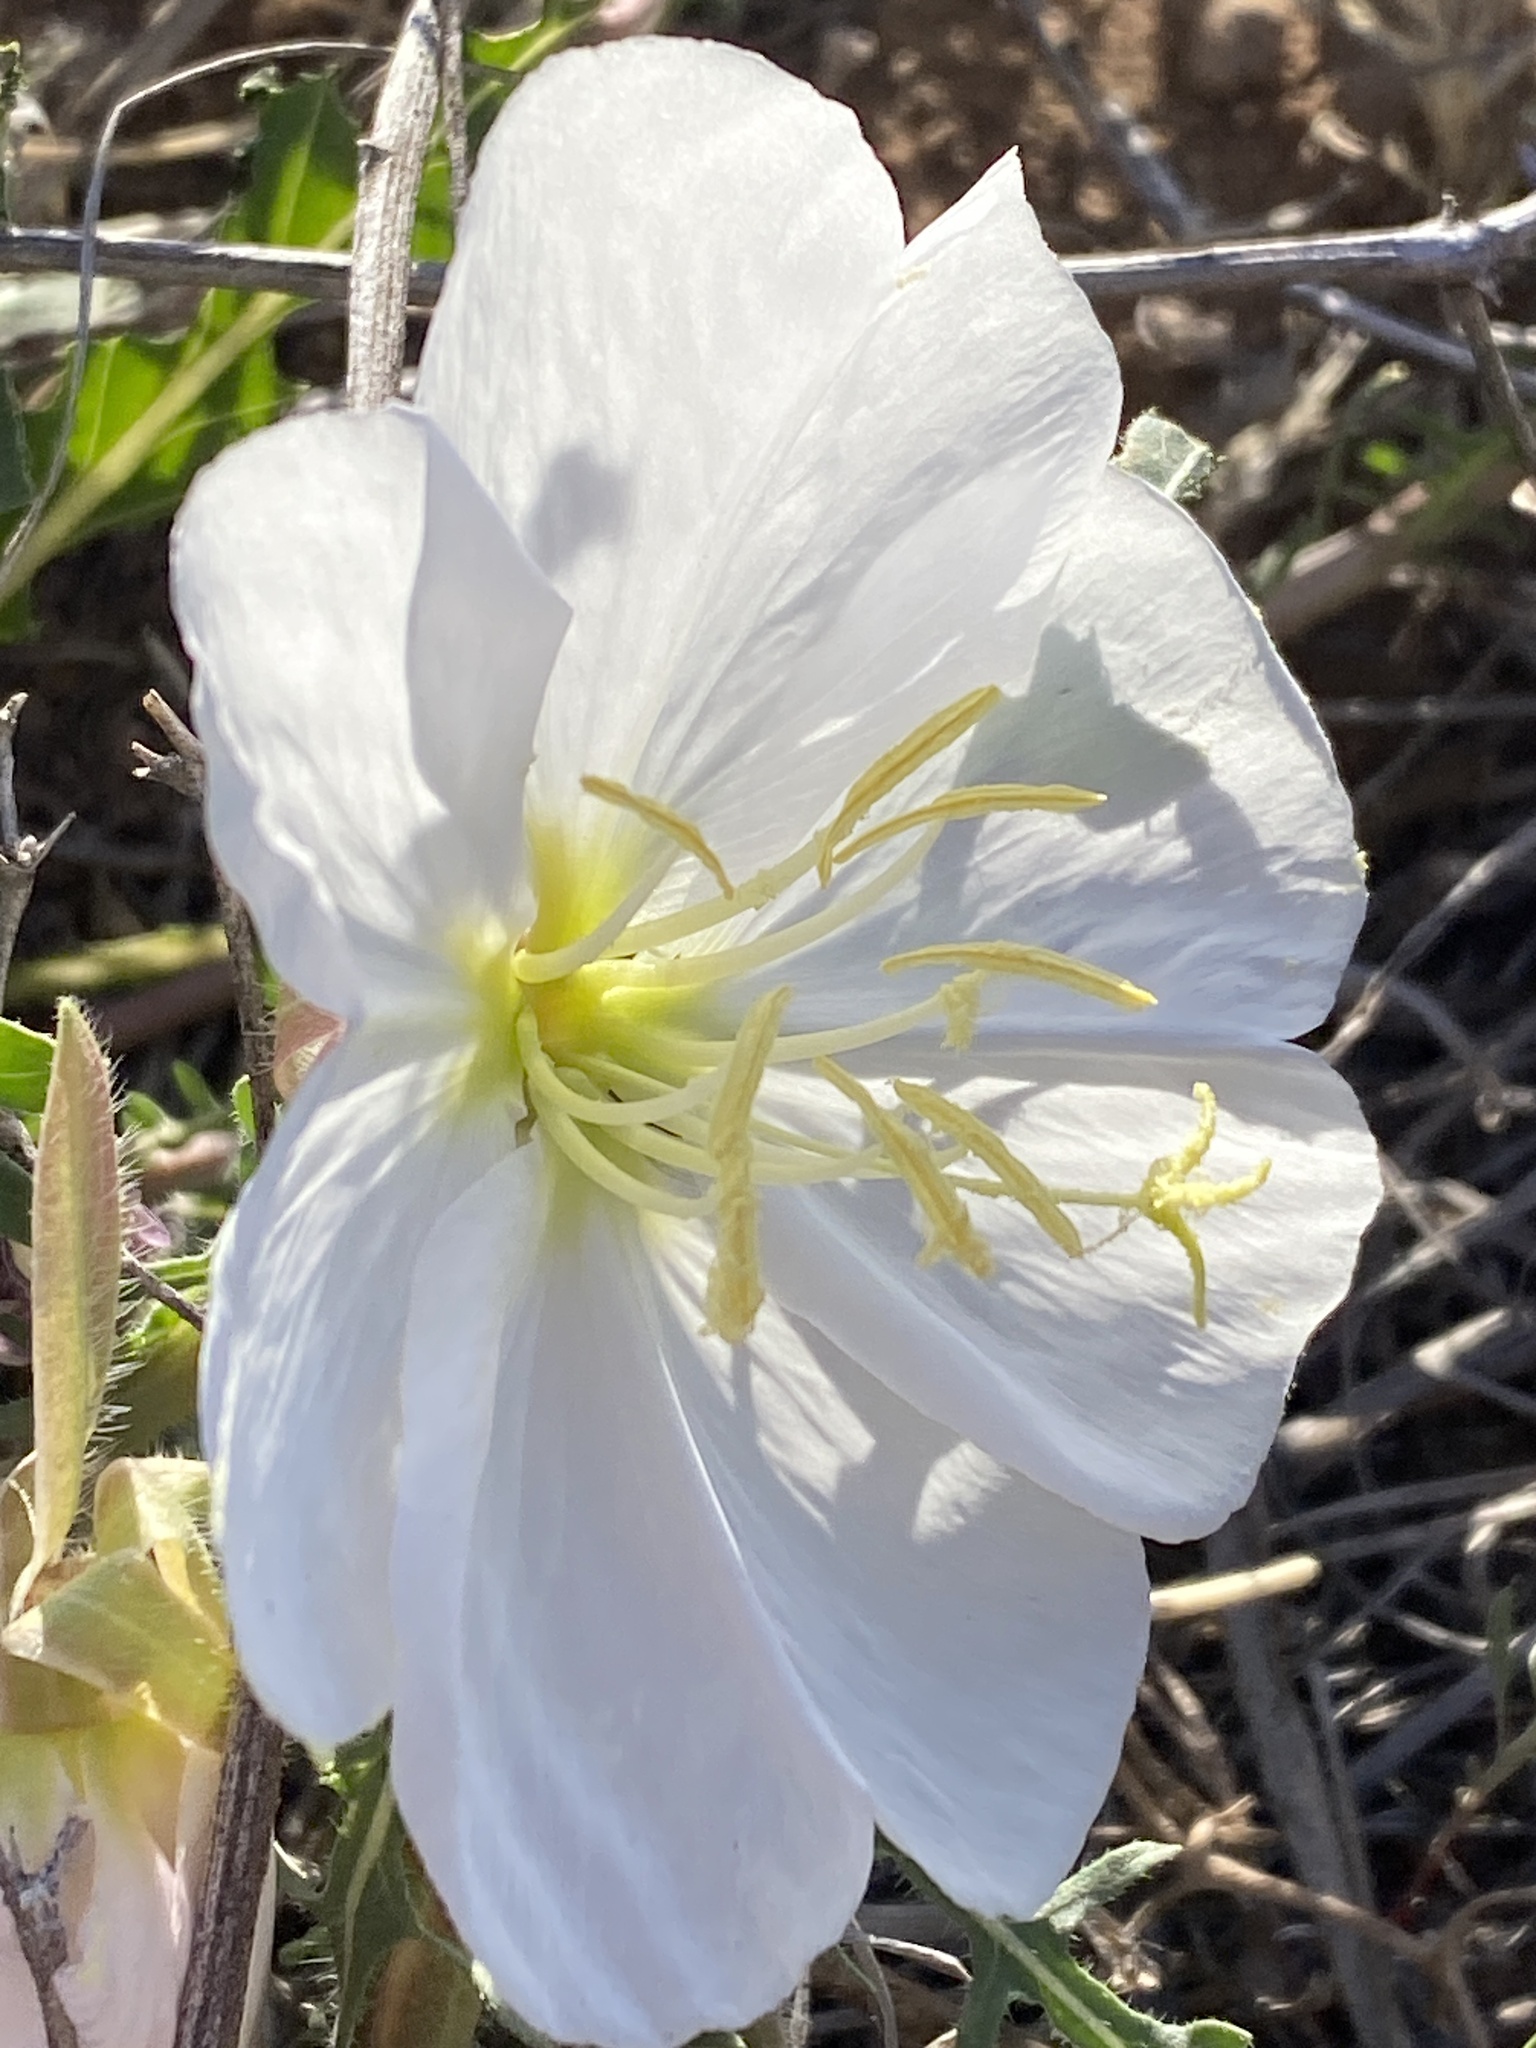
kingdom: Plantae
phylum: Tracheophyta
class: Magnoliopsida
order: Myrtales
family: Onagraceae
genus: Oenothera
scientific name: Oenothera albicaulis
